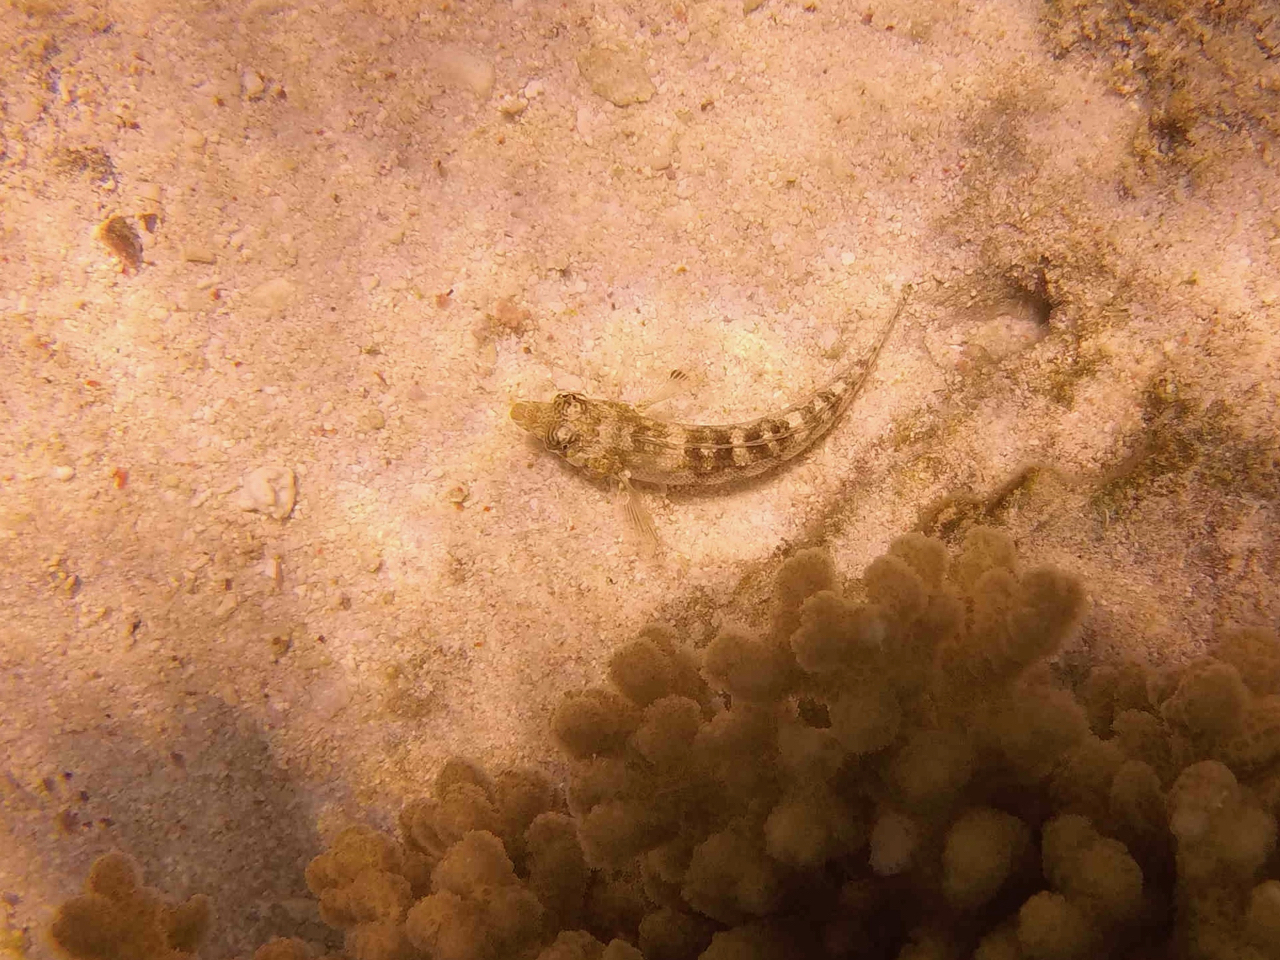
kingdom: Animalia
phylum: Chordata
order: Perciformes
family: Pinguipedidae
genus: Parapercis
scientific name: Parapercis australis
